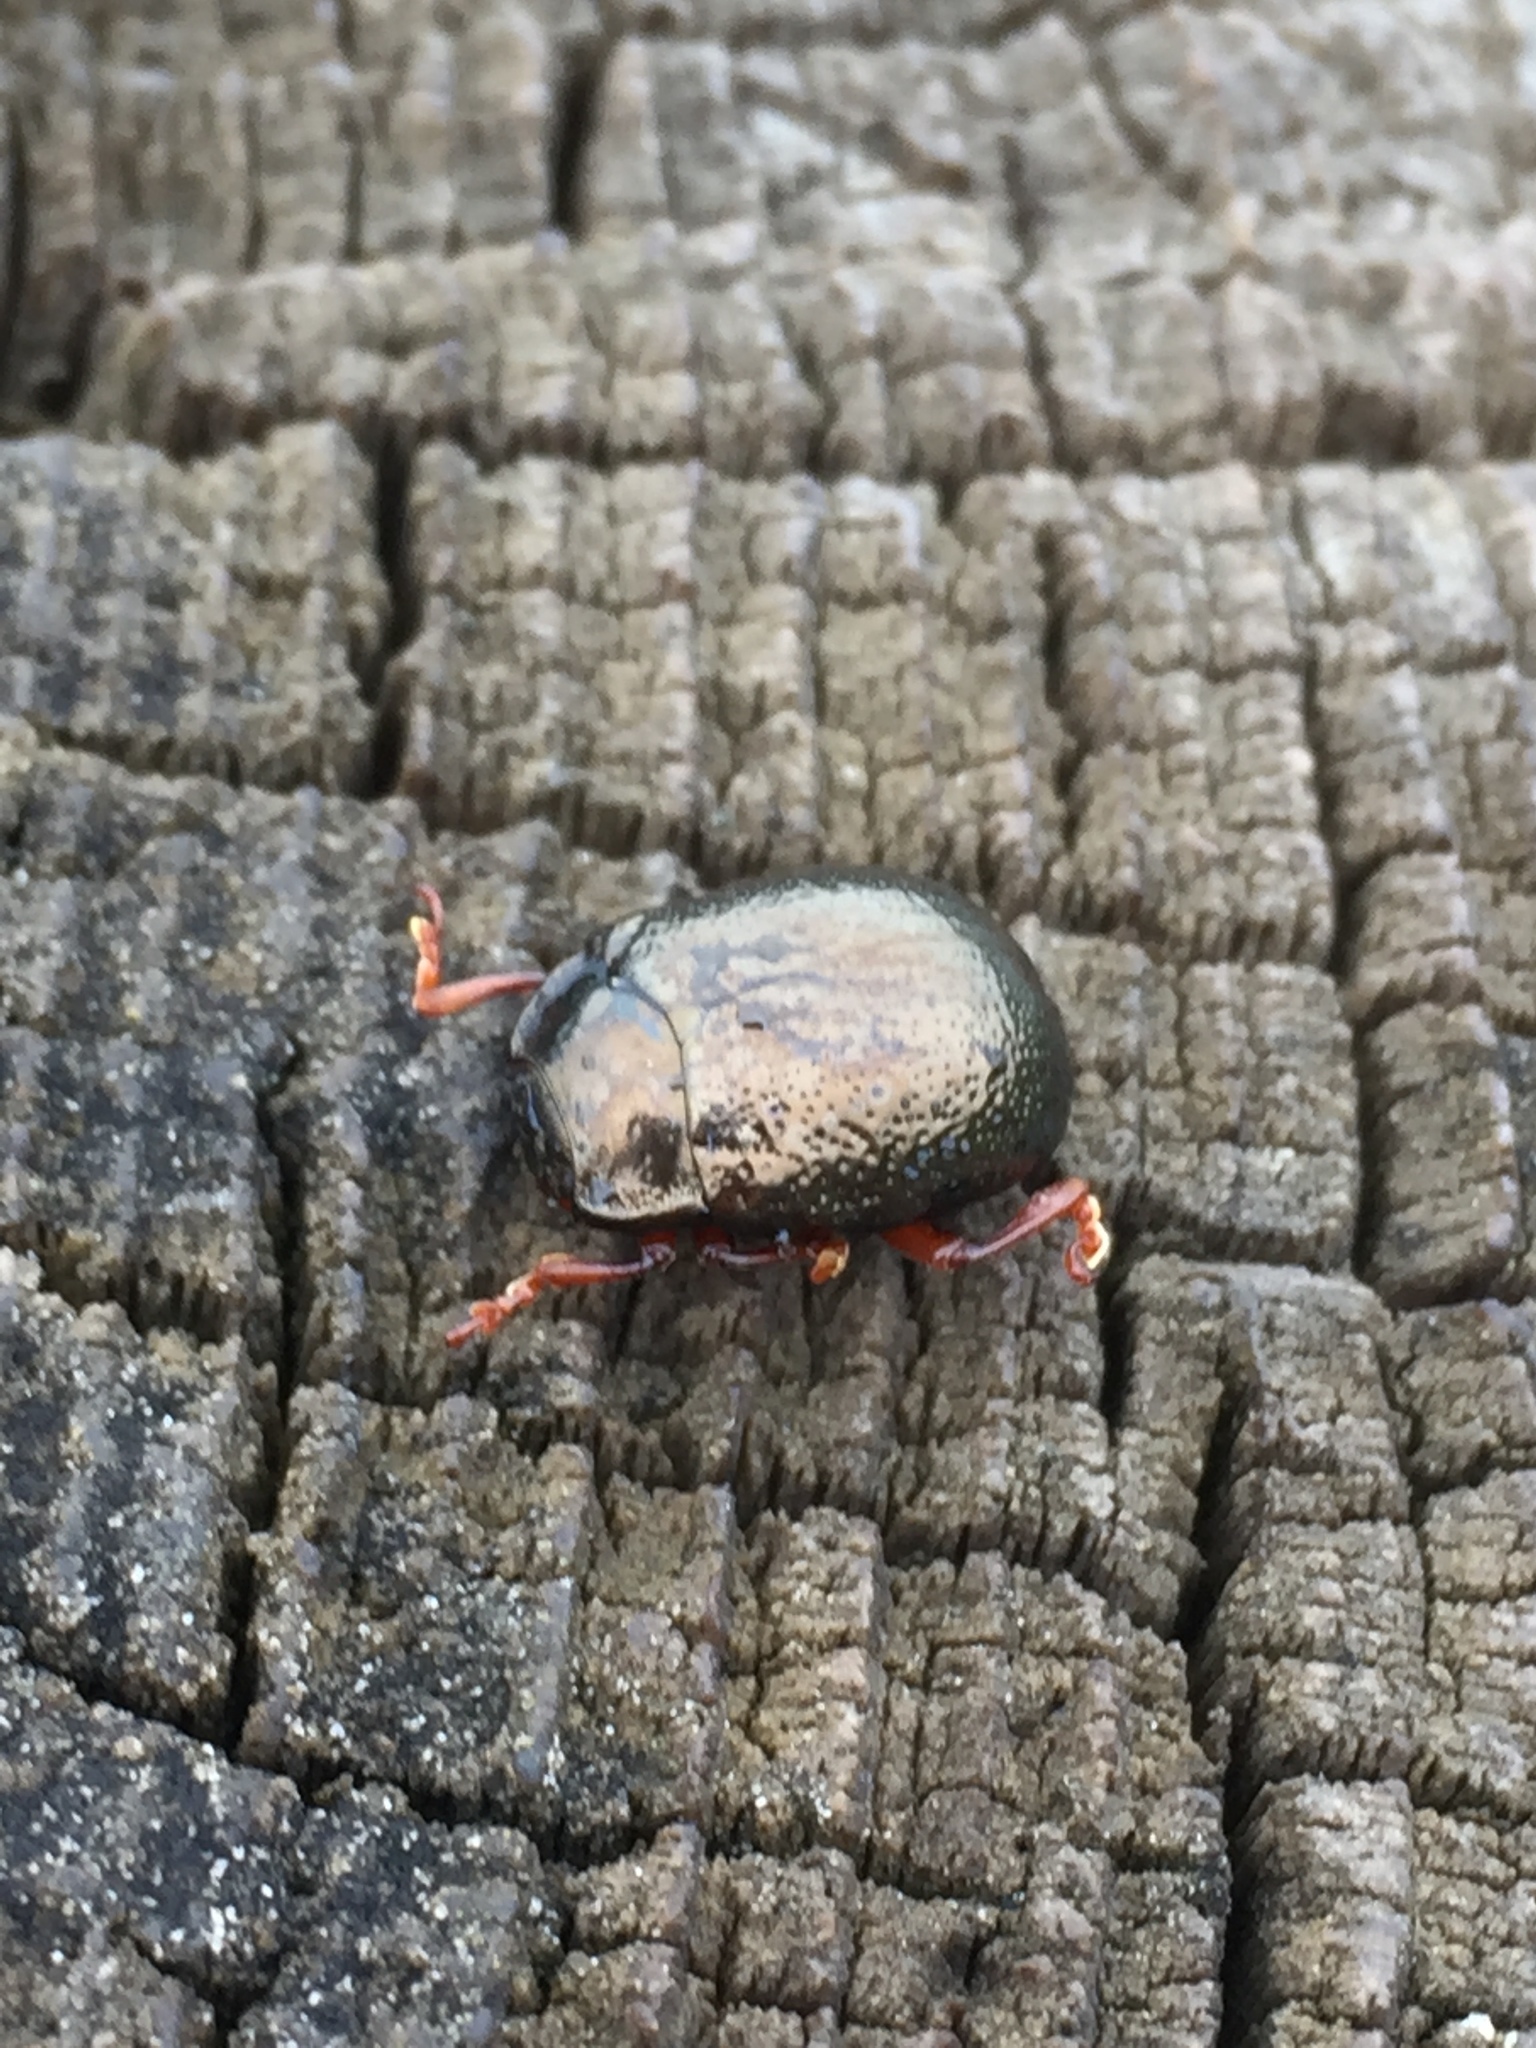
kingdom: Animalia
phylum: Arthropoda
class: Insecta
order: Coleoptera
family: Chrysomelidae
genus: Chrysolina
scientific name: Chrysolina bankii
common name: Leaf beetle
